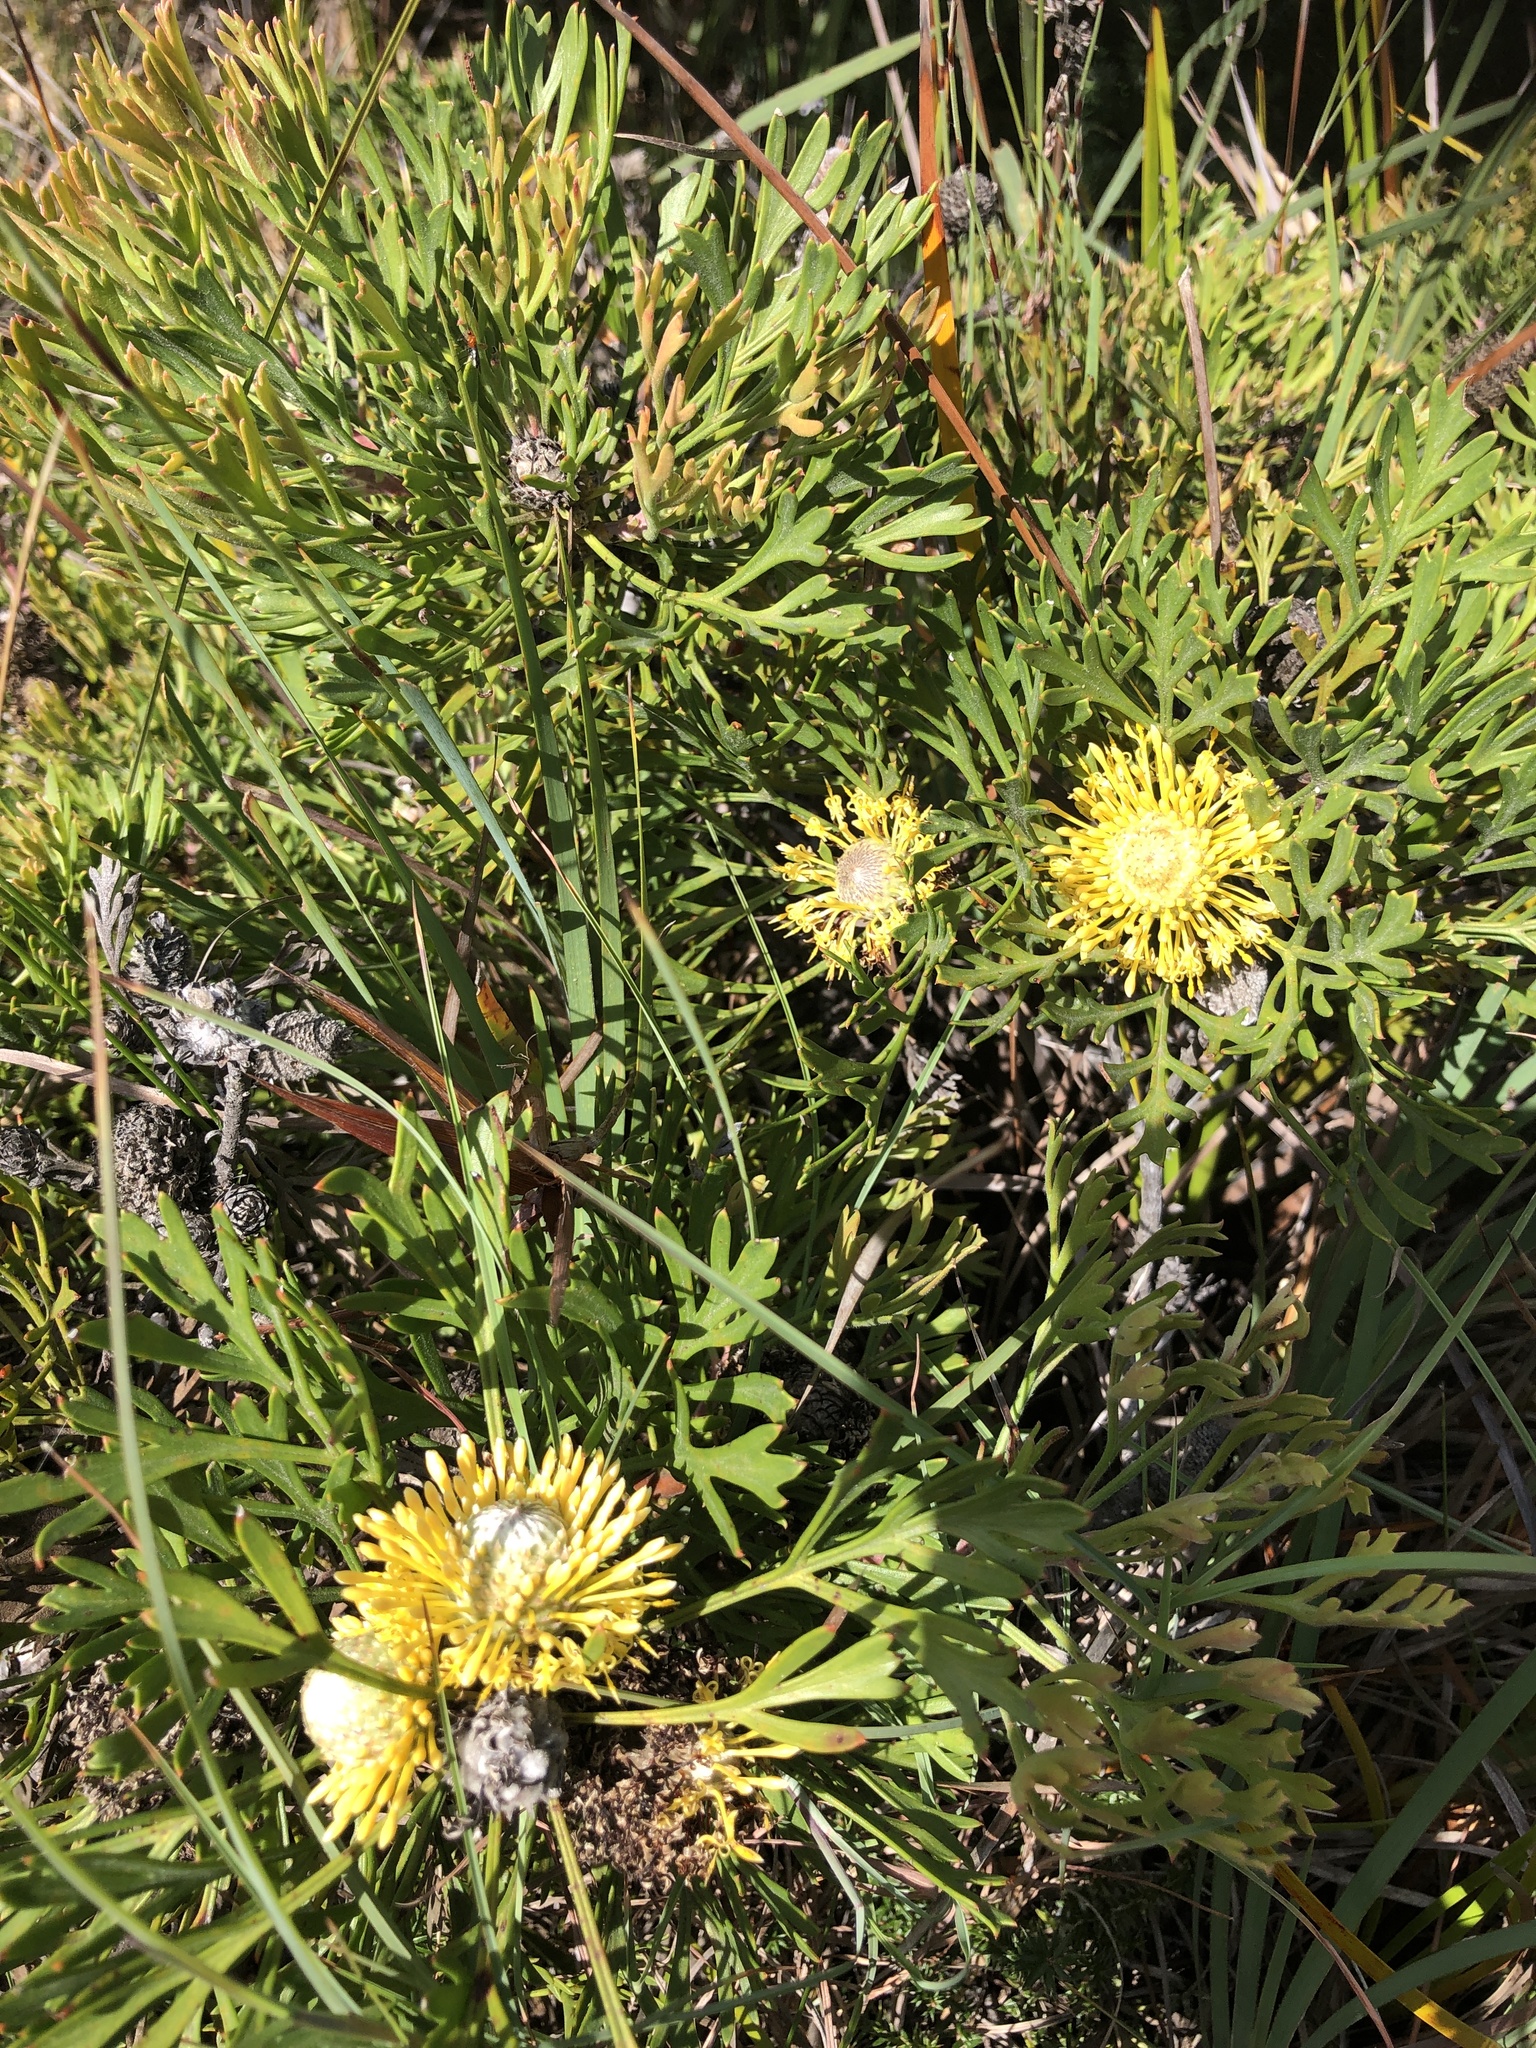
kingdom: Plantae
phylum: Tracheophyta
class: Magnoliopsida
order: Proteales
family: Proteaceae
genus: Isopogon
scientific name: Isopogon anemonifolius
